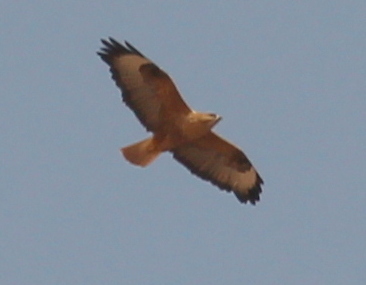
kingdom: Animalia
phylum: Chordata
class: Aves
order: Accipitriformes
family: Accipitridae
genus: Buteo
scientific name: Buteo rufinus
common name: Long-legged buzzard
